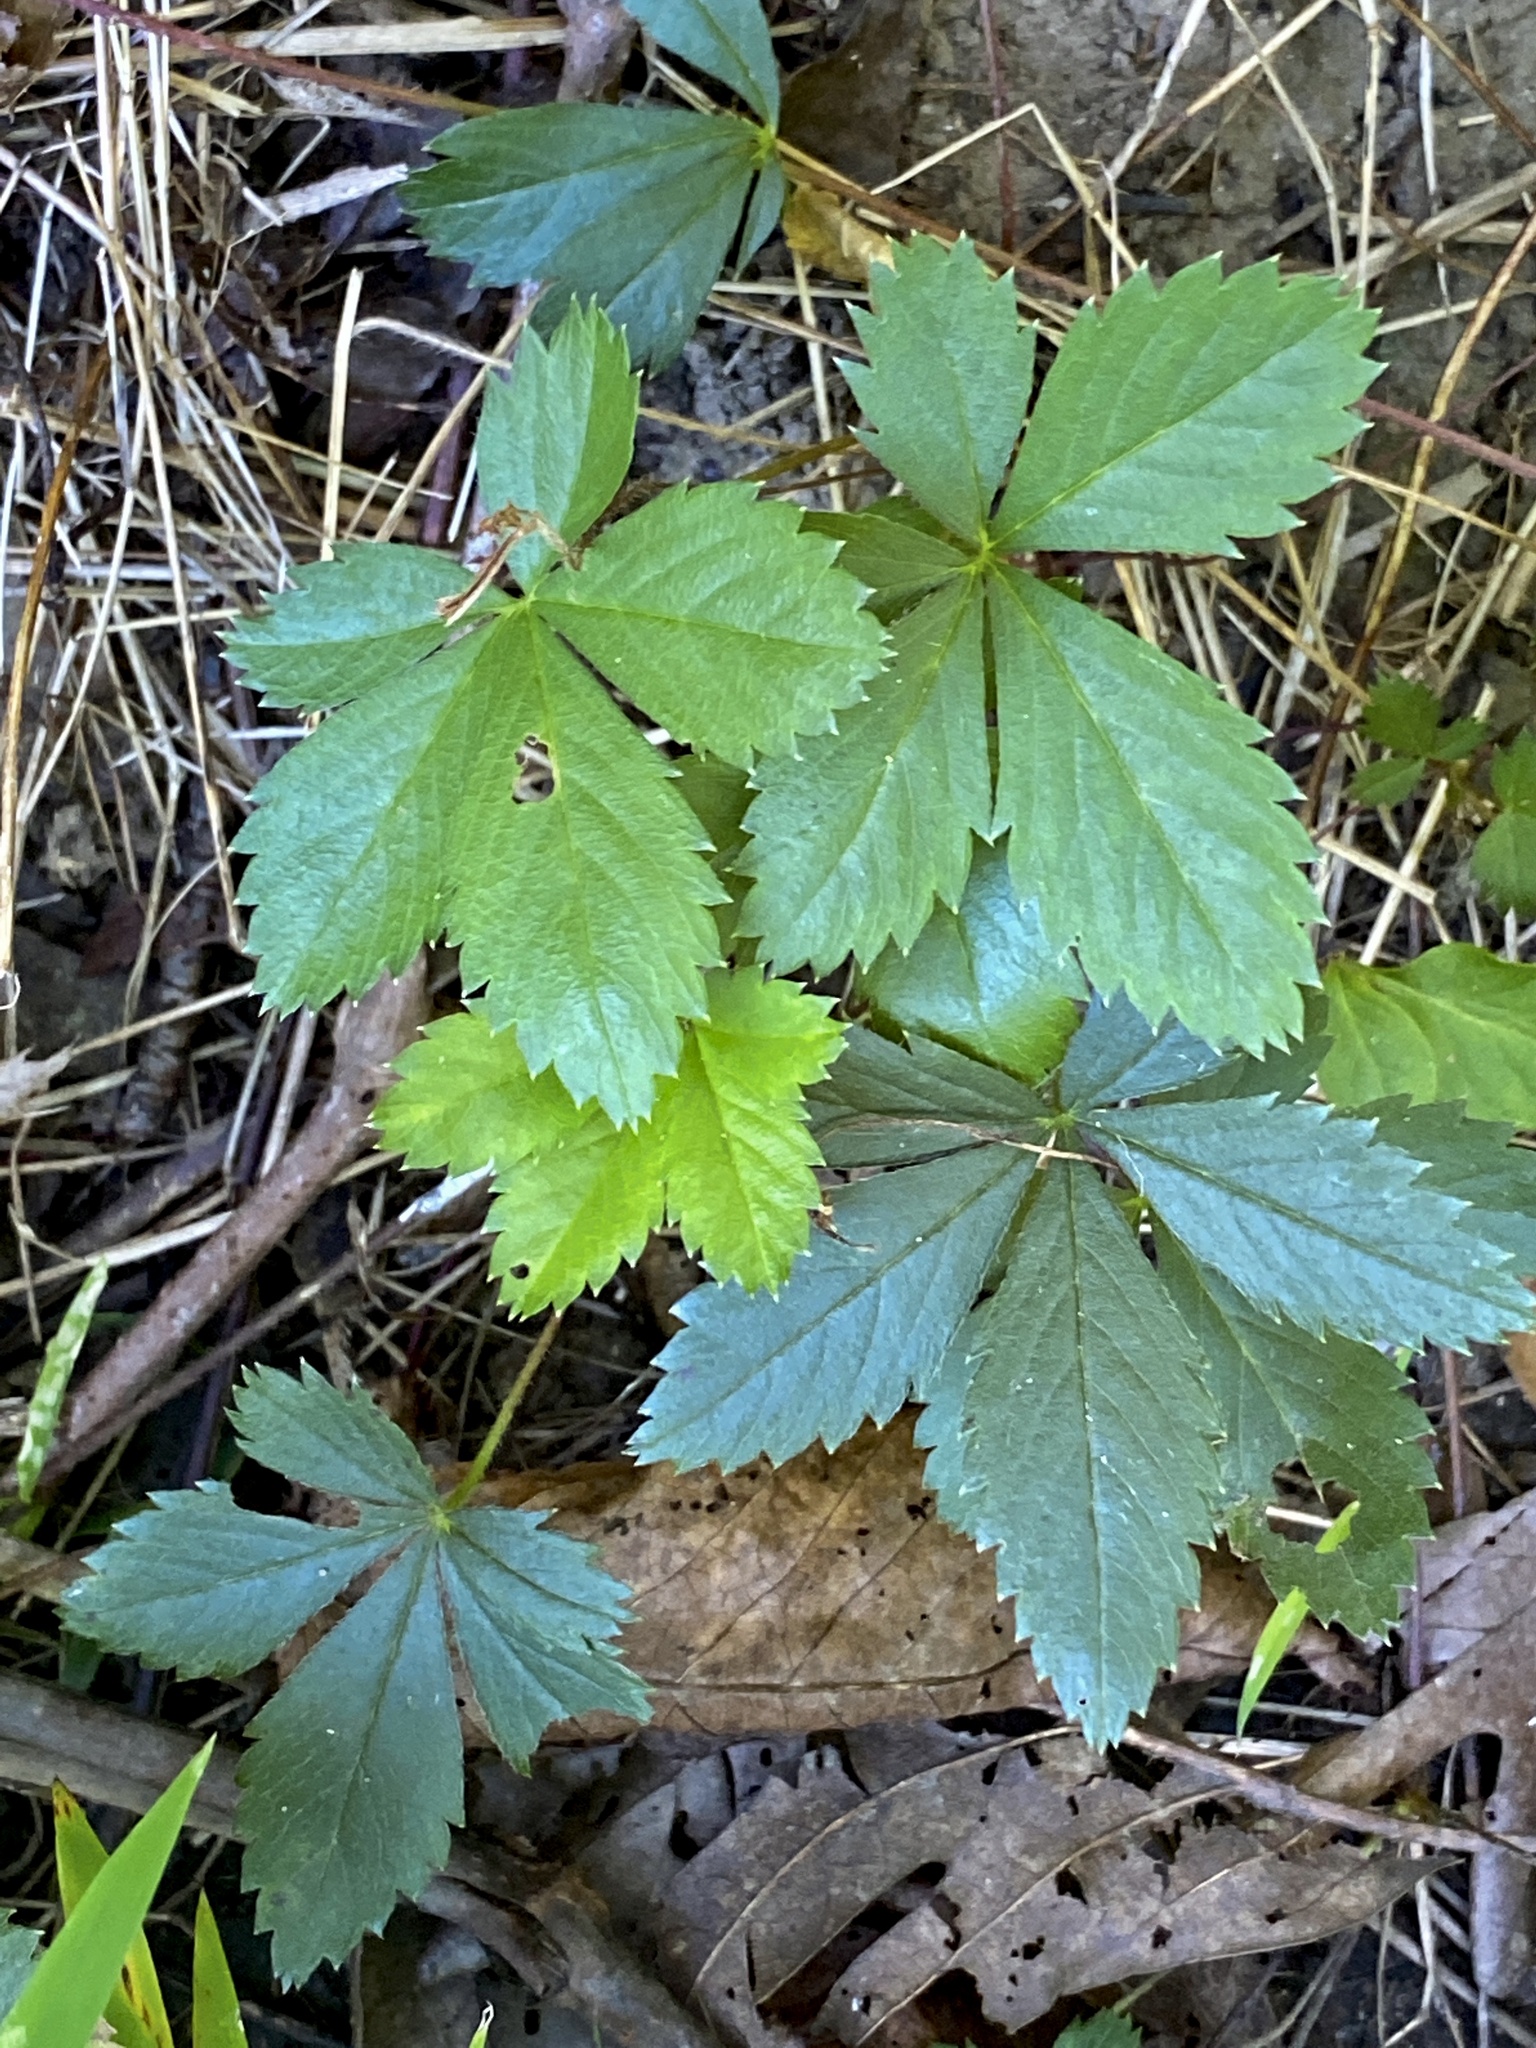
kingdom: Plantae
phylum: Tracheophyta
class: Magnoliopsida
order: Rosales
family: Rosaceae
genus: Potentilla
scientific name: Potentilla canadensis
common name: Canada cinquefoil
